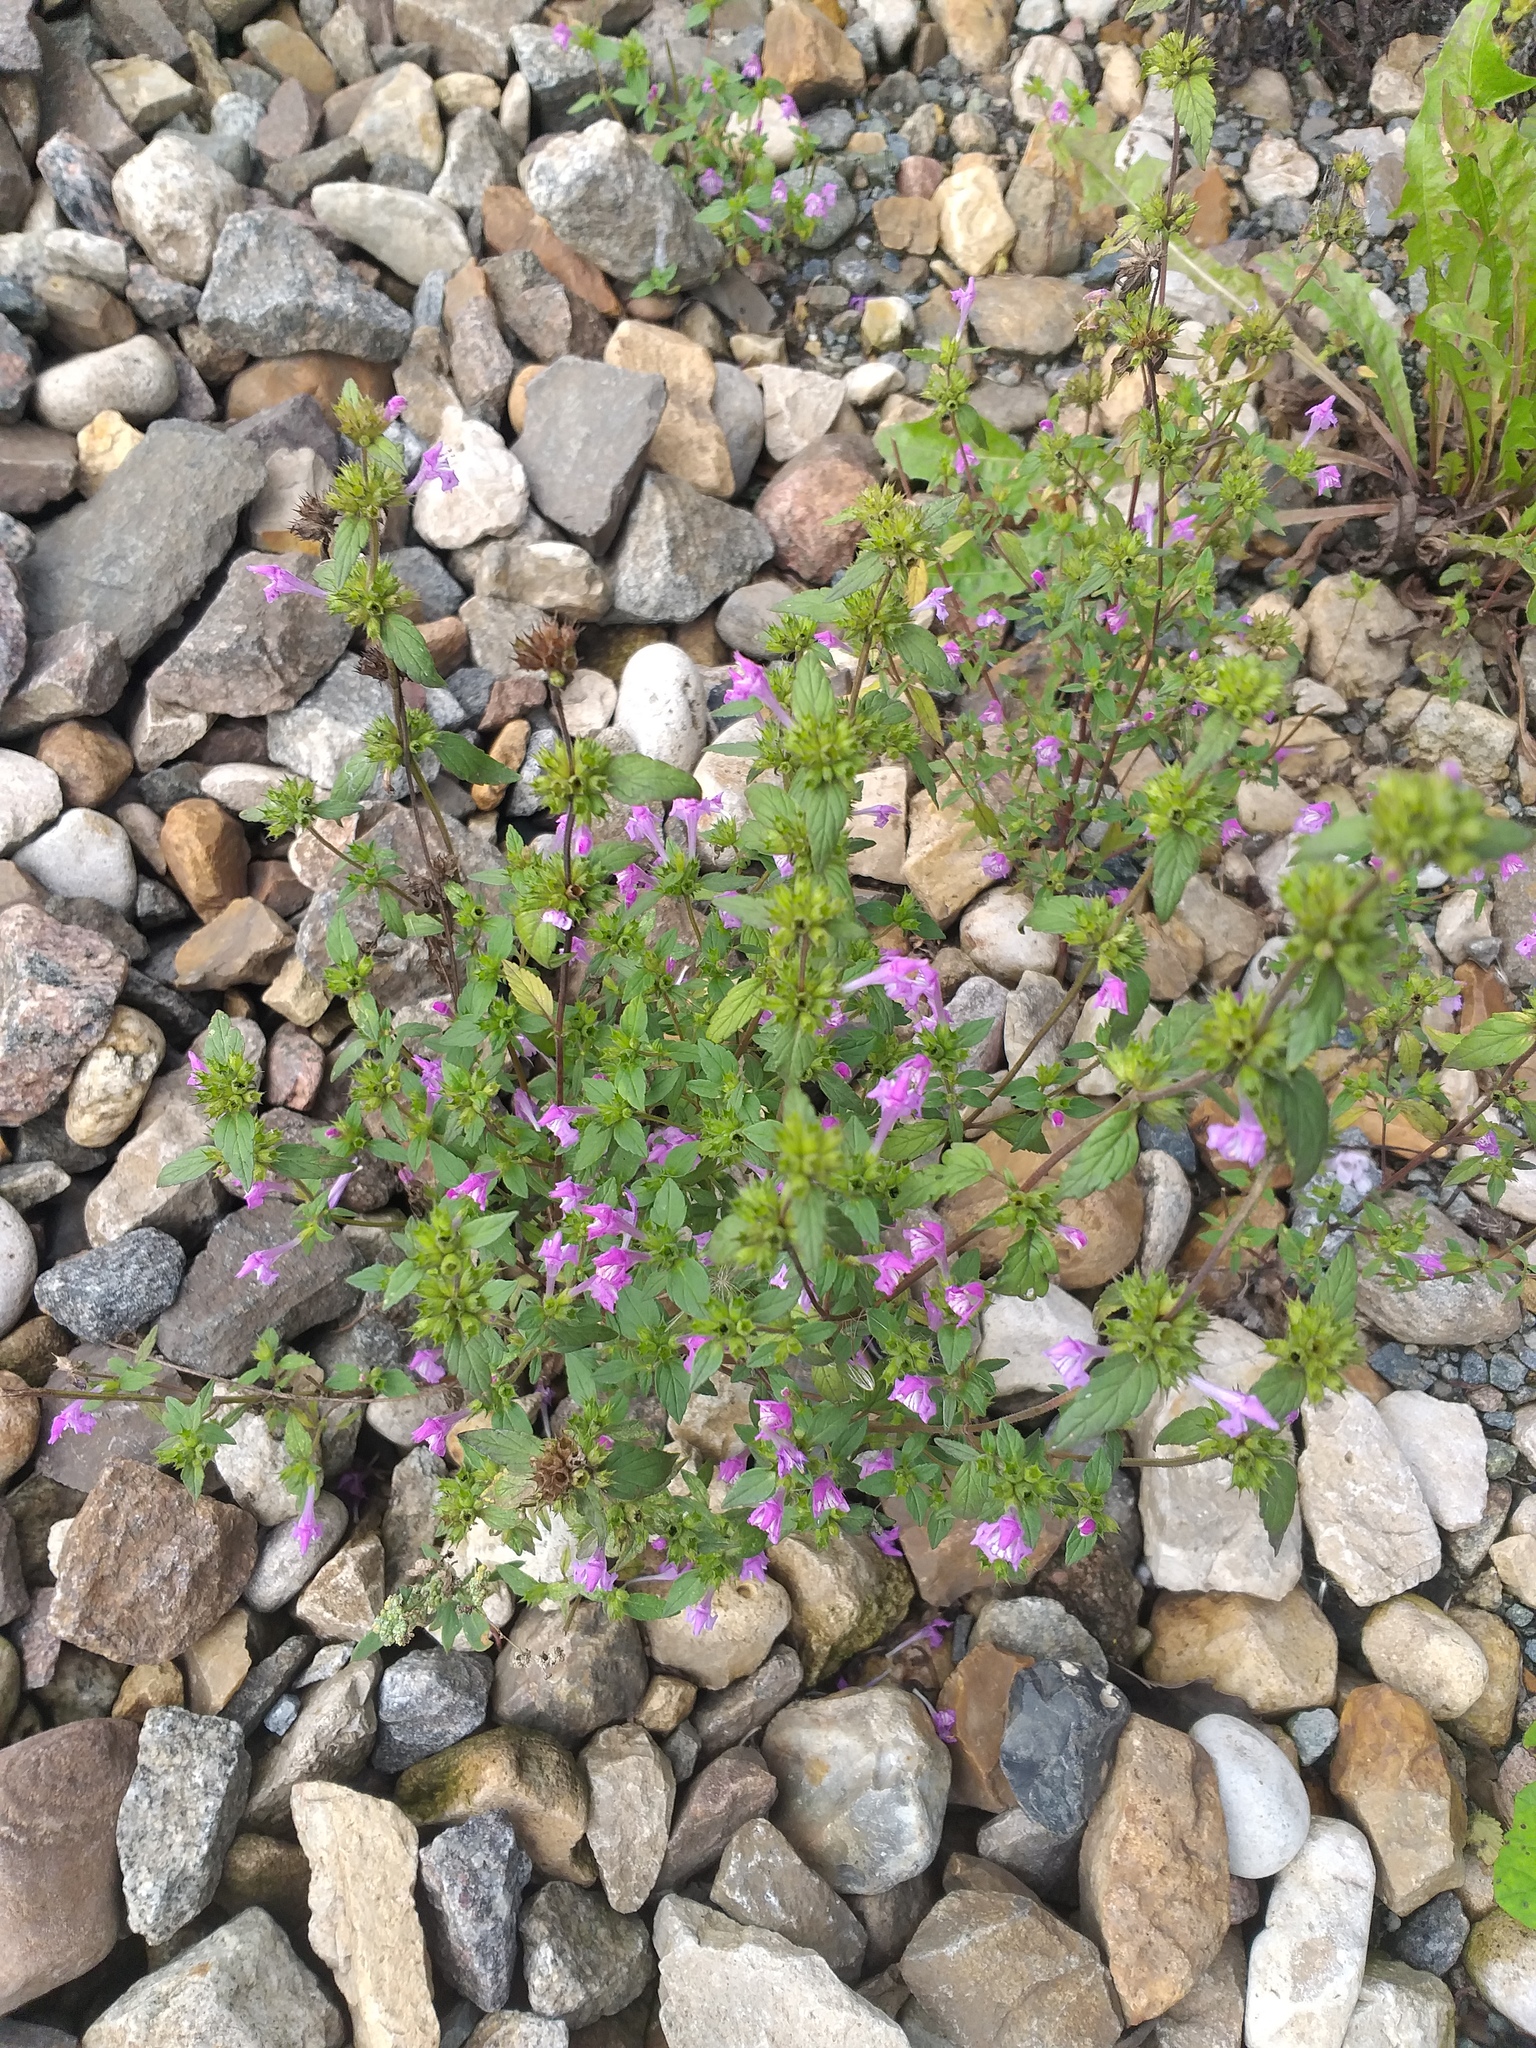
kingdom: Plantae
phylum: Tracheophyta
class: Magnoliopsida
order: Lamiales
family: Lamiaceae
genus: Galeopsis
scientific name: Galeopsis ladanum
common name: Broad-leaved hemp-nettle
